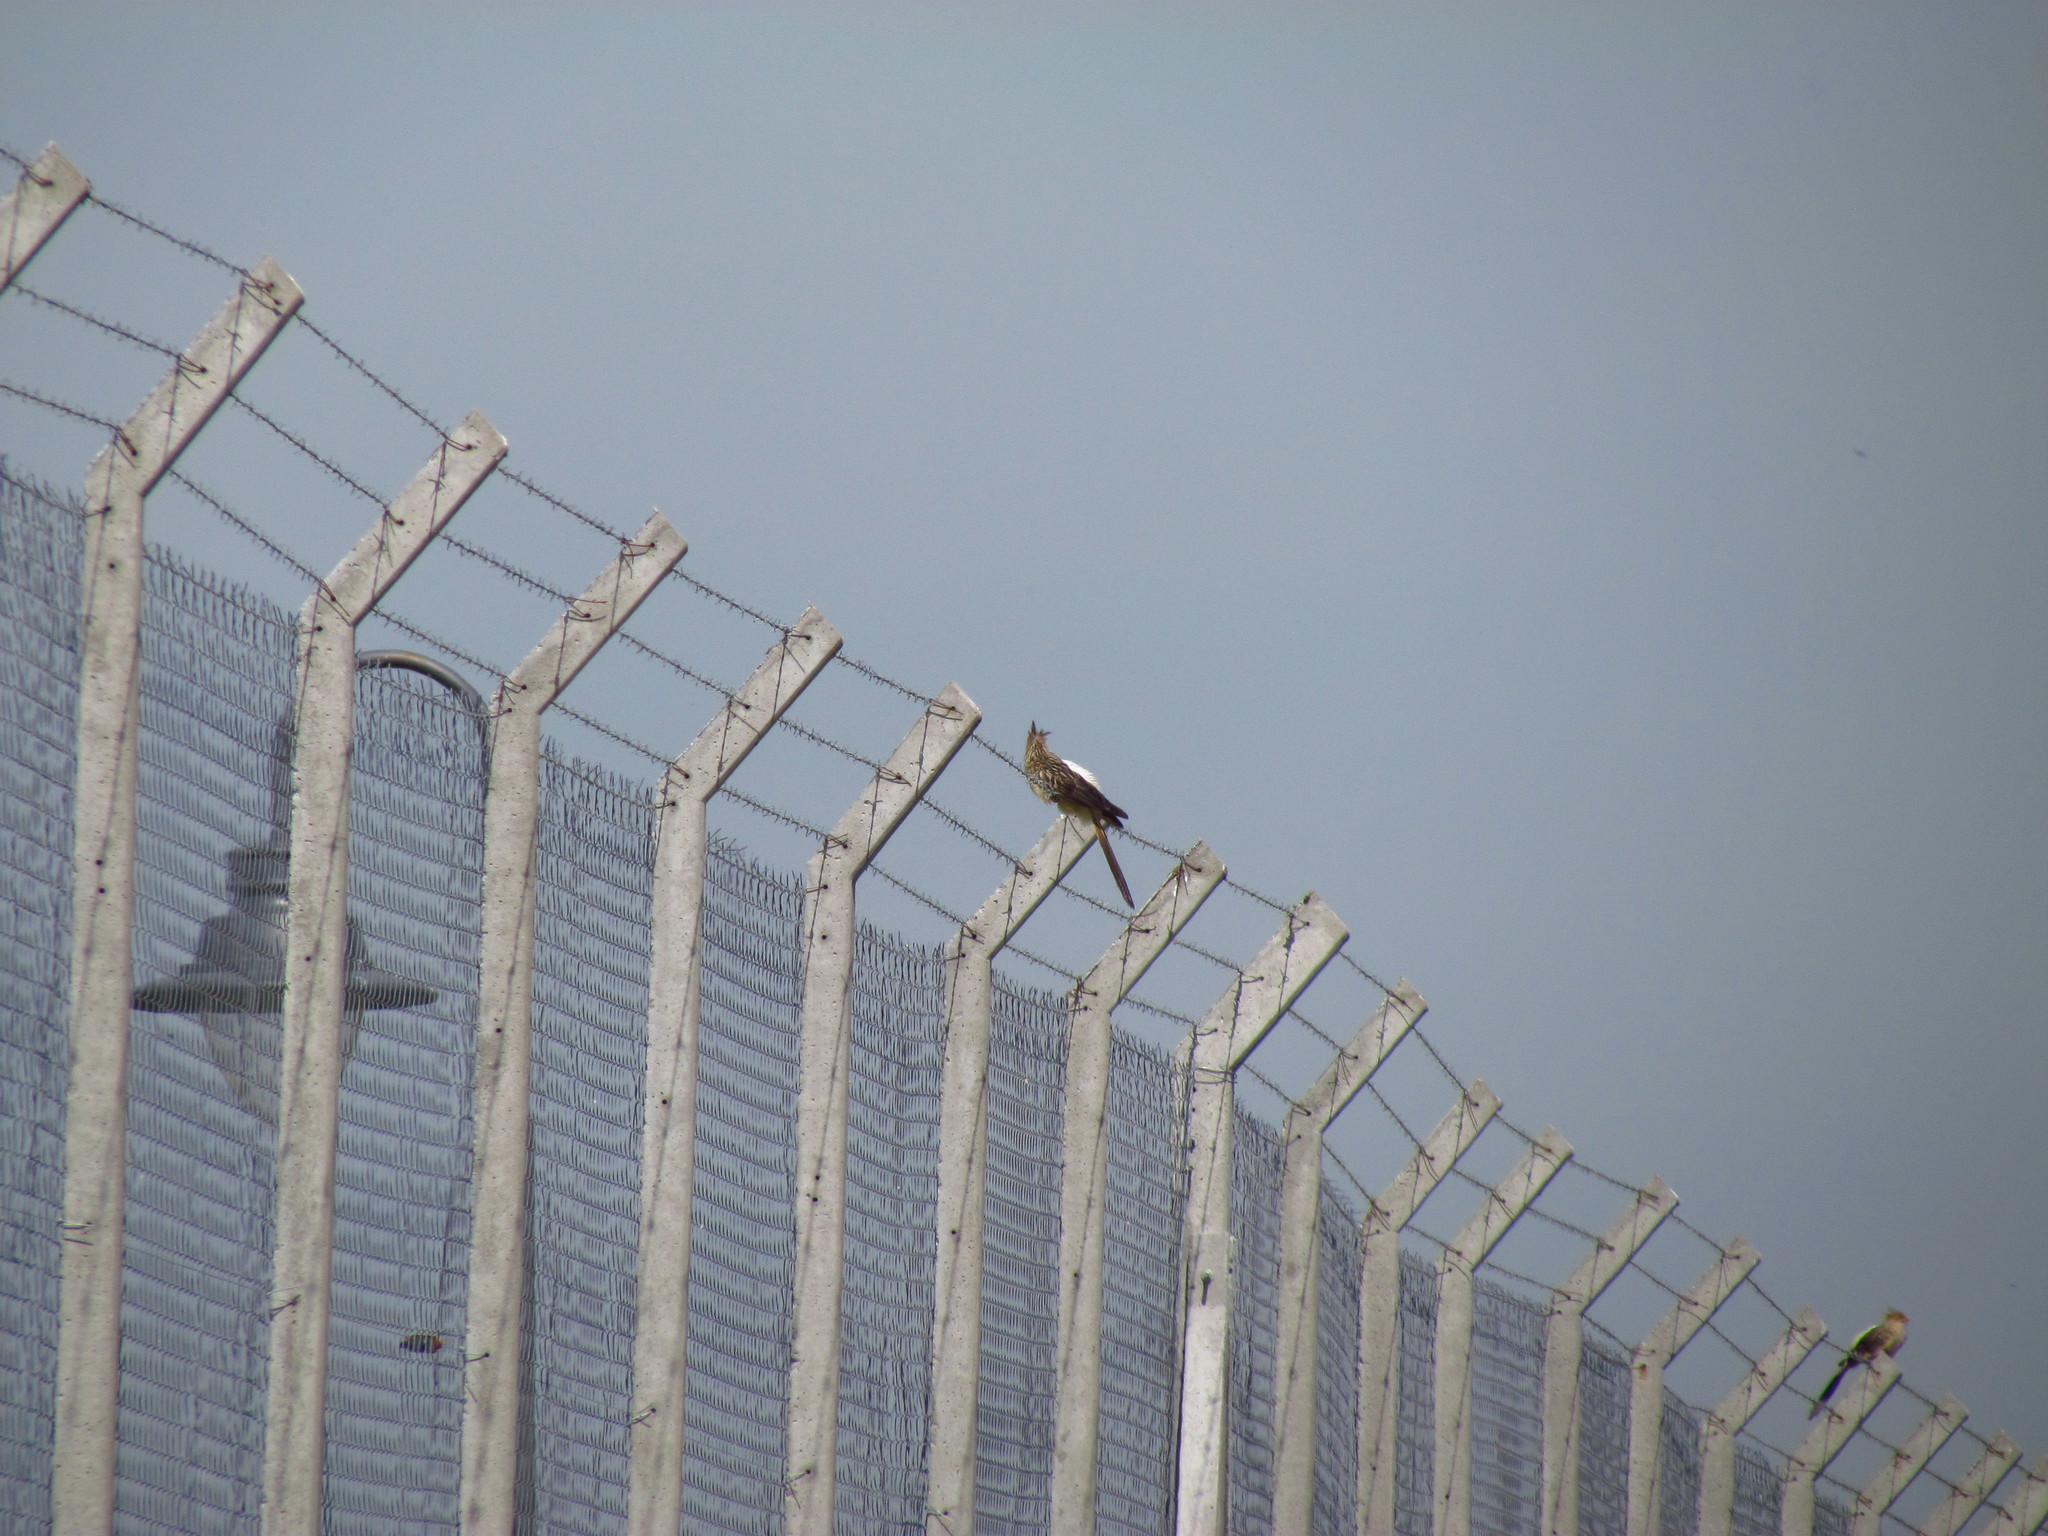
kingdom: Animalia
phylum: Chordata
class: Aves
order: Cuculiformes
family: Cuculidae
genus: Guira
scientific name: Guira guira
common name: Guira cuckoo
